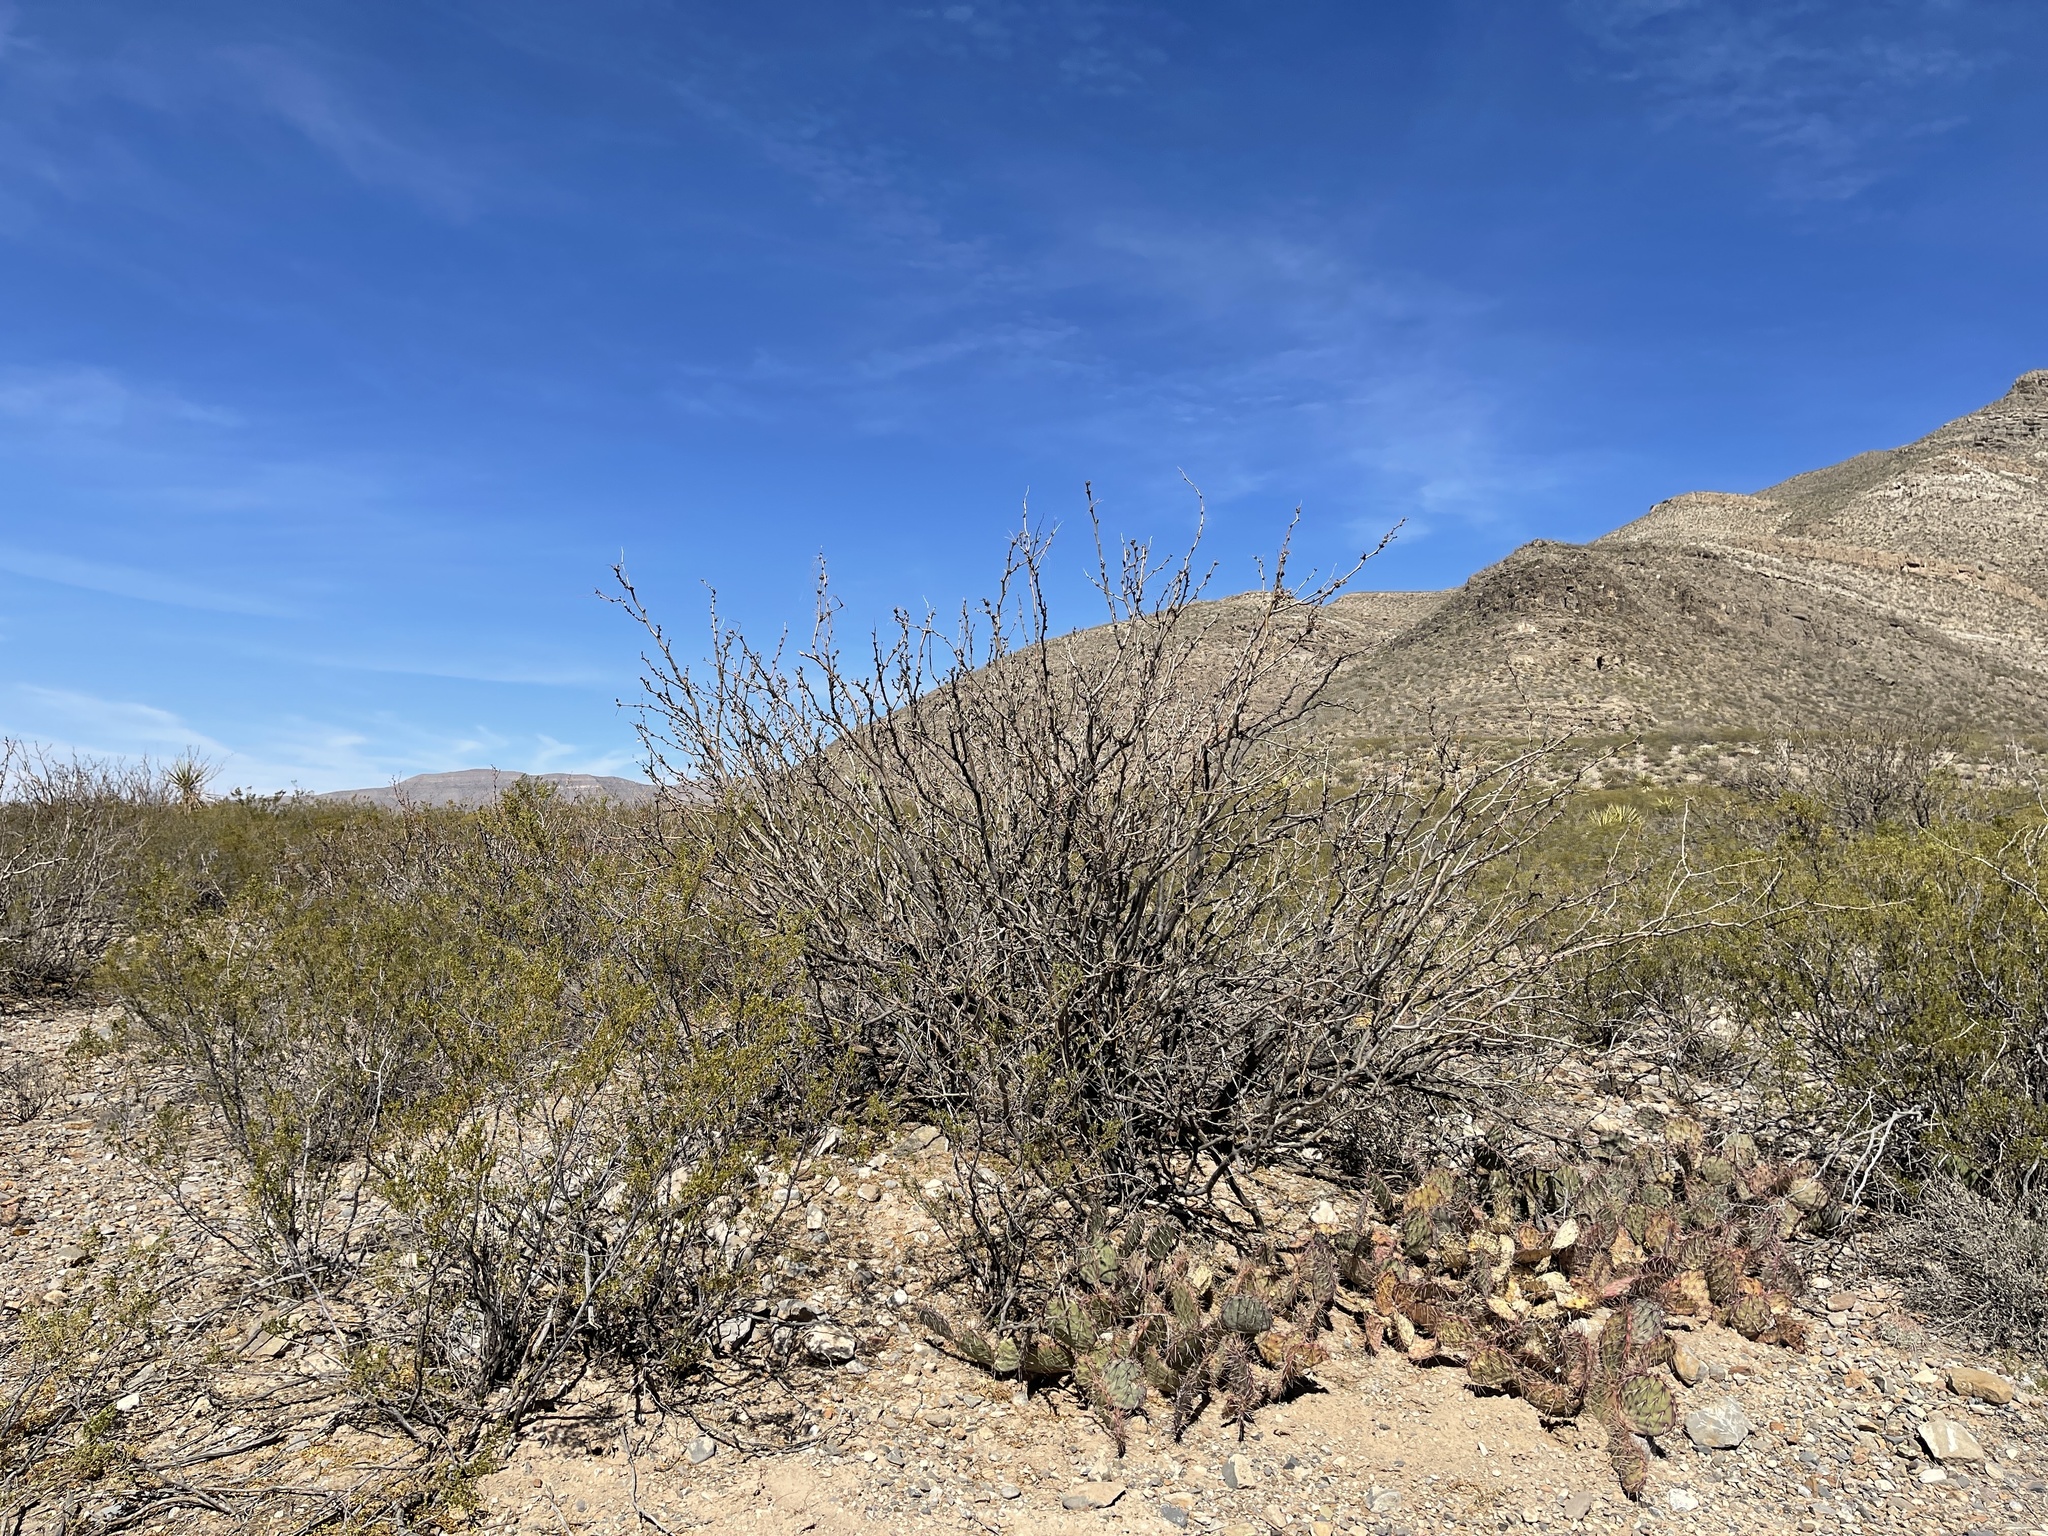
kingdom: Plantae
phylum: Tracheophyta
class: Magnoliopsida
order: Fabales
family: Fabaceae
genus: Prosopis
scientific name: Prosopis glandulosa
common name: Honey mesquite
